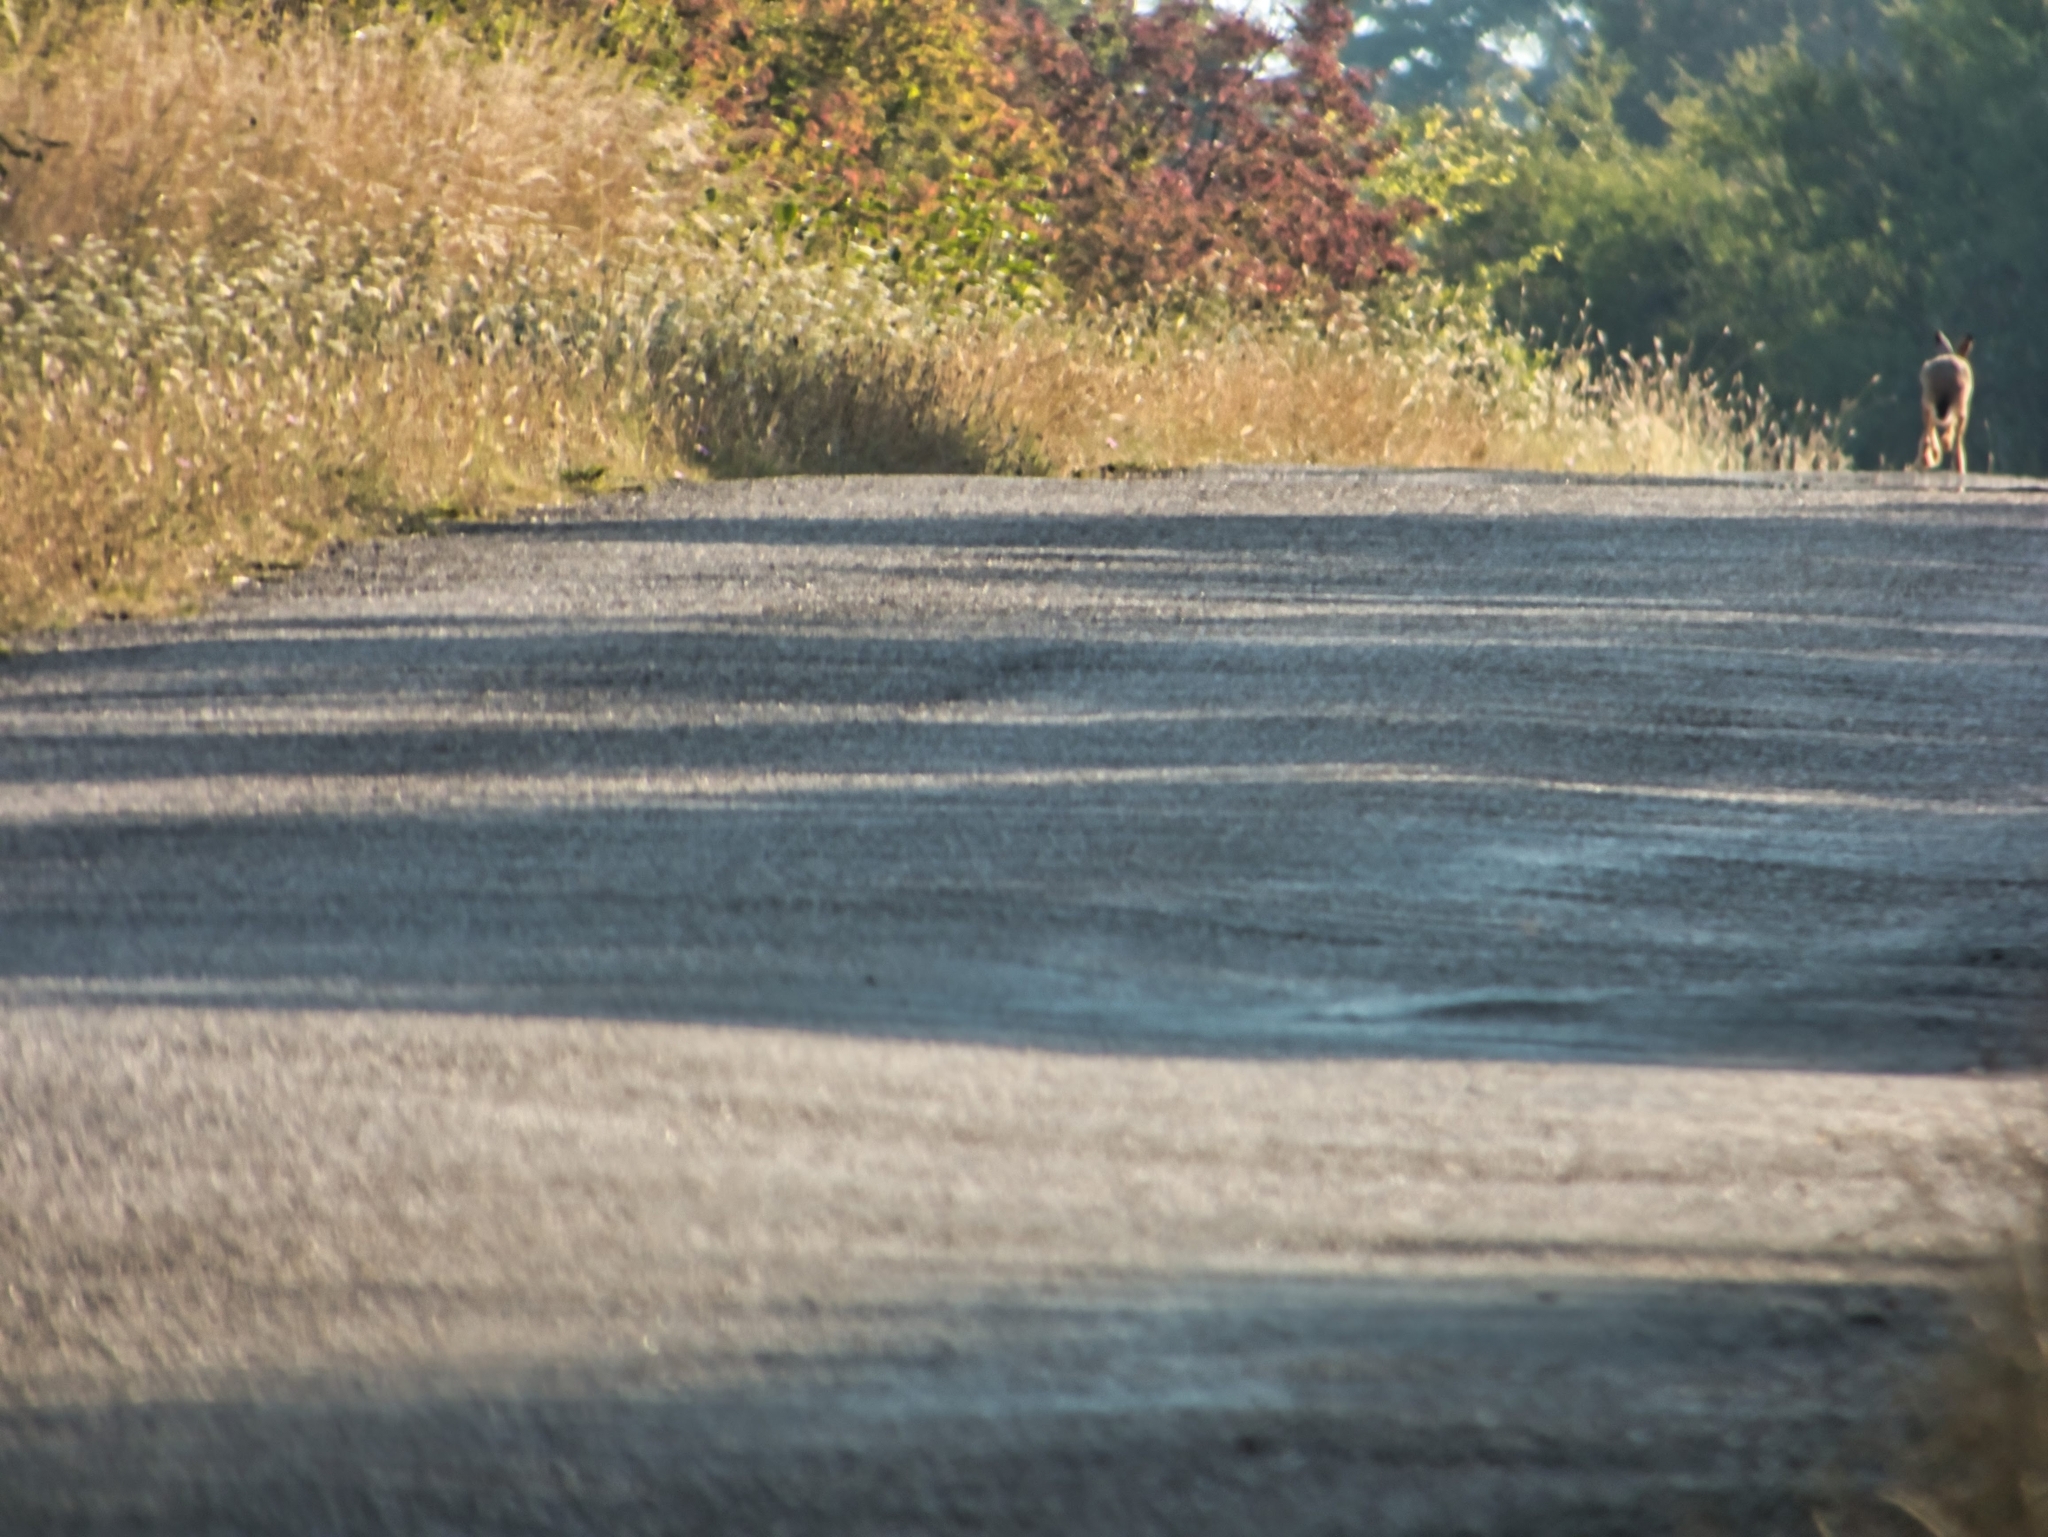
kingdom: Animalia
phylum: Chordata
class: Mammalia
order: Lagomorpha
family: Leporidae
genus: Lepus
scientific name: Lepus europaeus
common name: European hare
